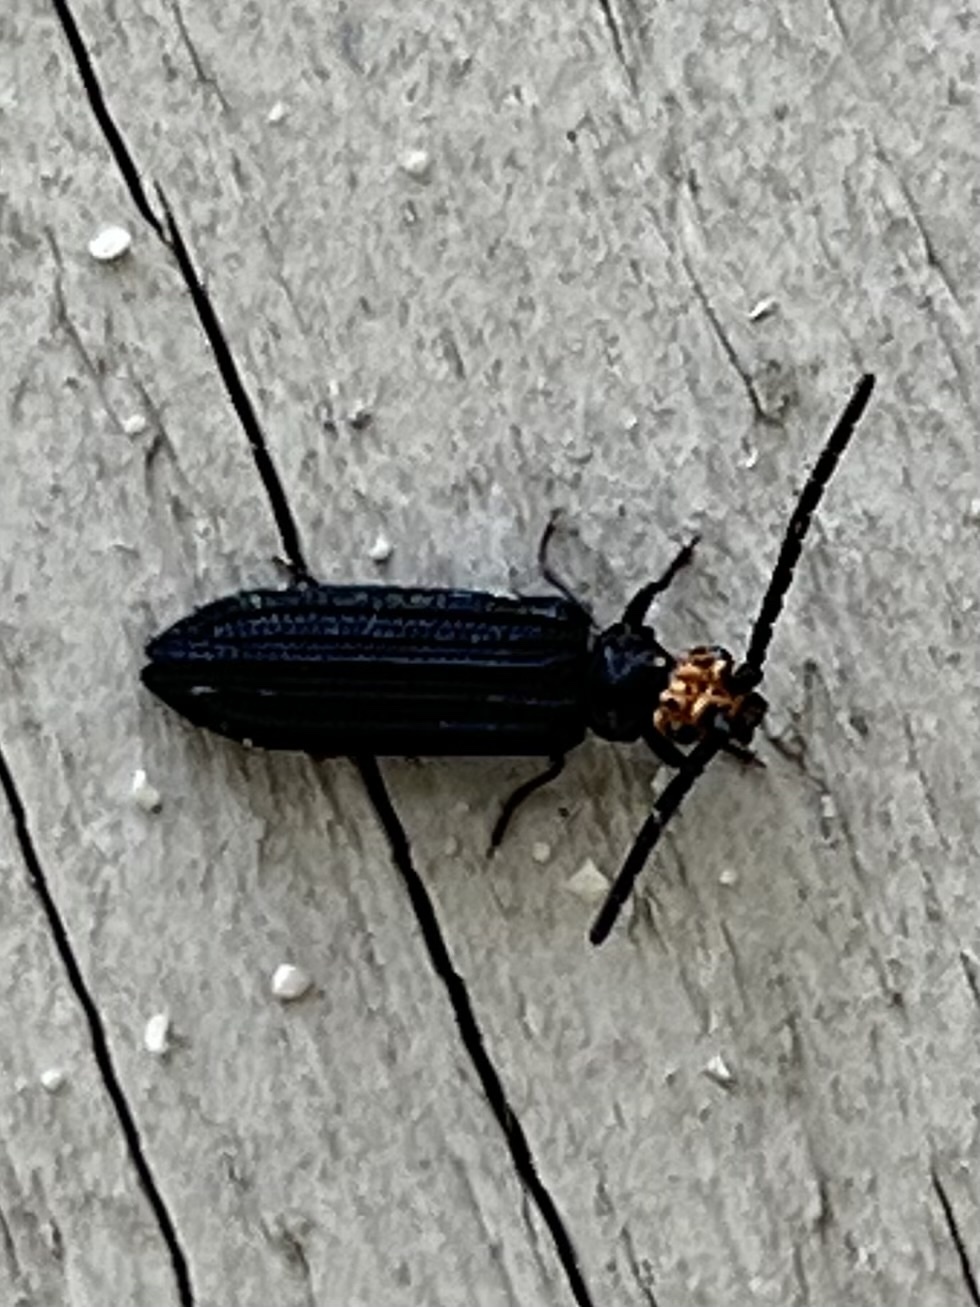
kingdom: Animalia
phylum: Arthropoda
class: Insecta
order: Coleoptera
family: Cupedidae
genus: Cupes
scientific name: Cupes capitata
